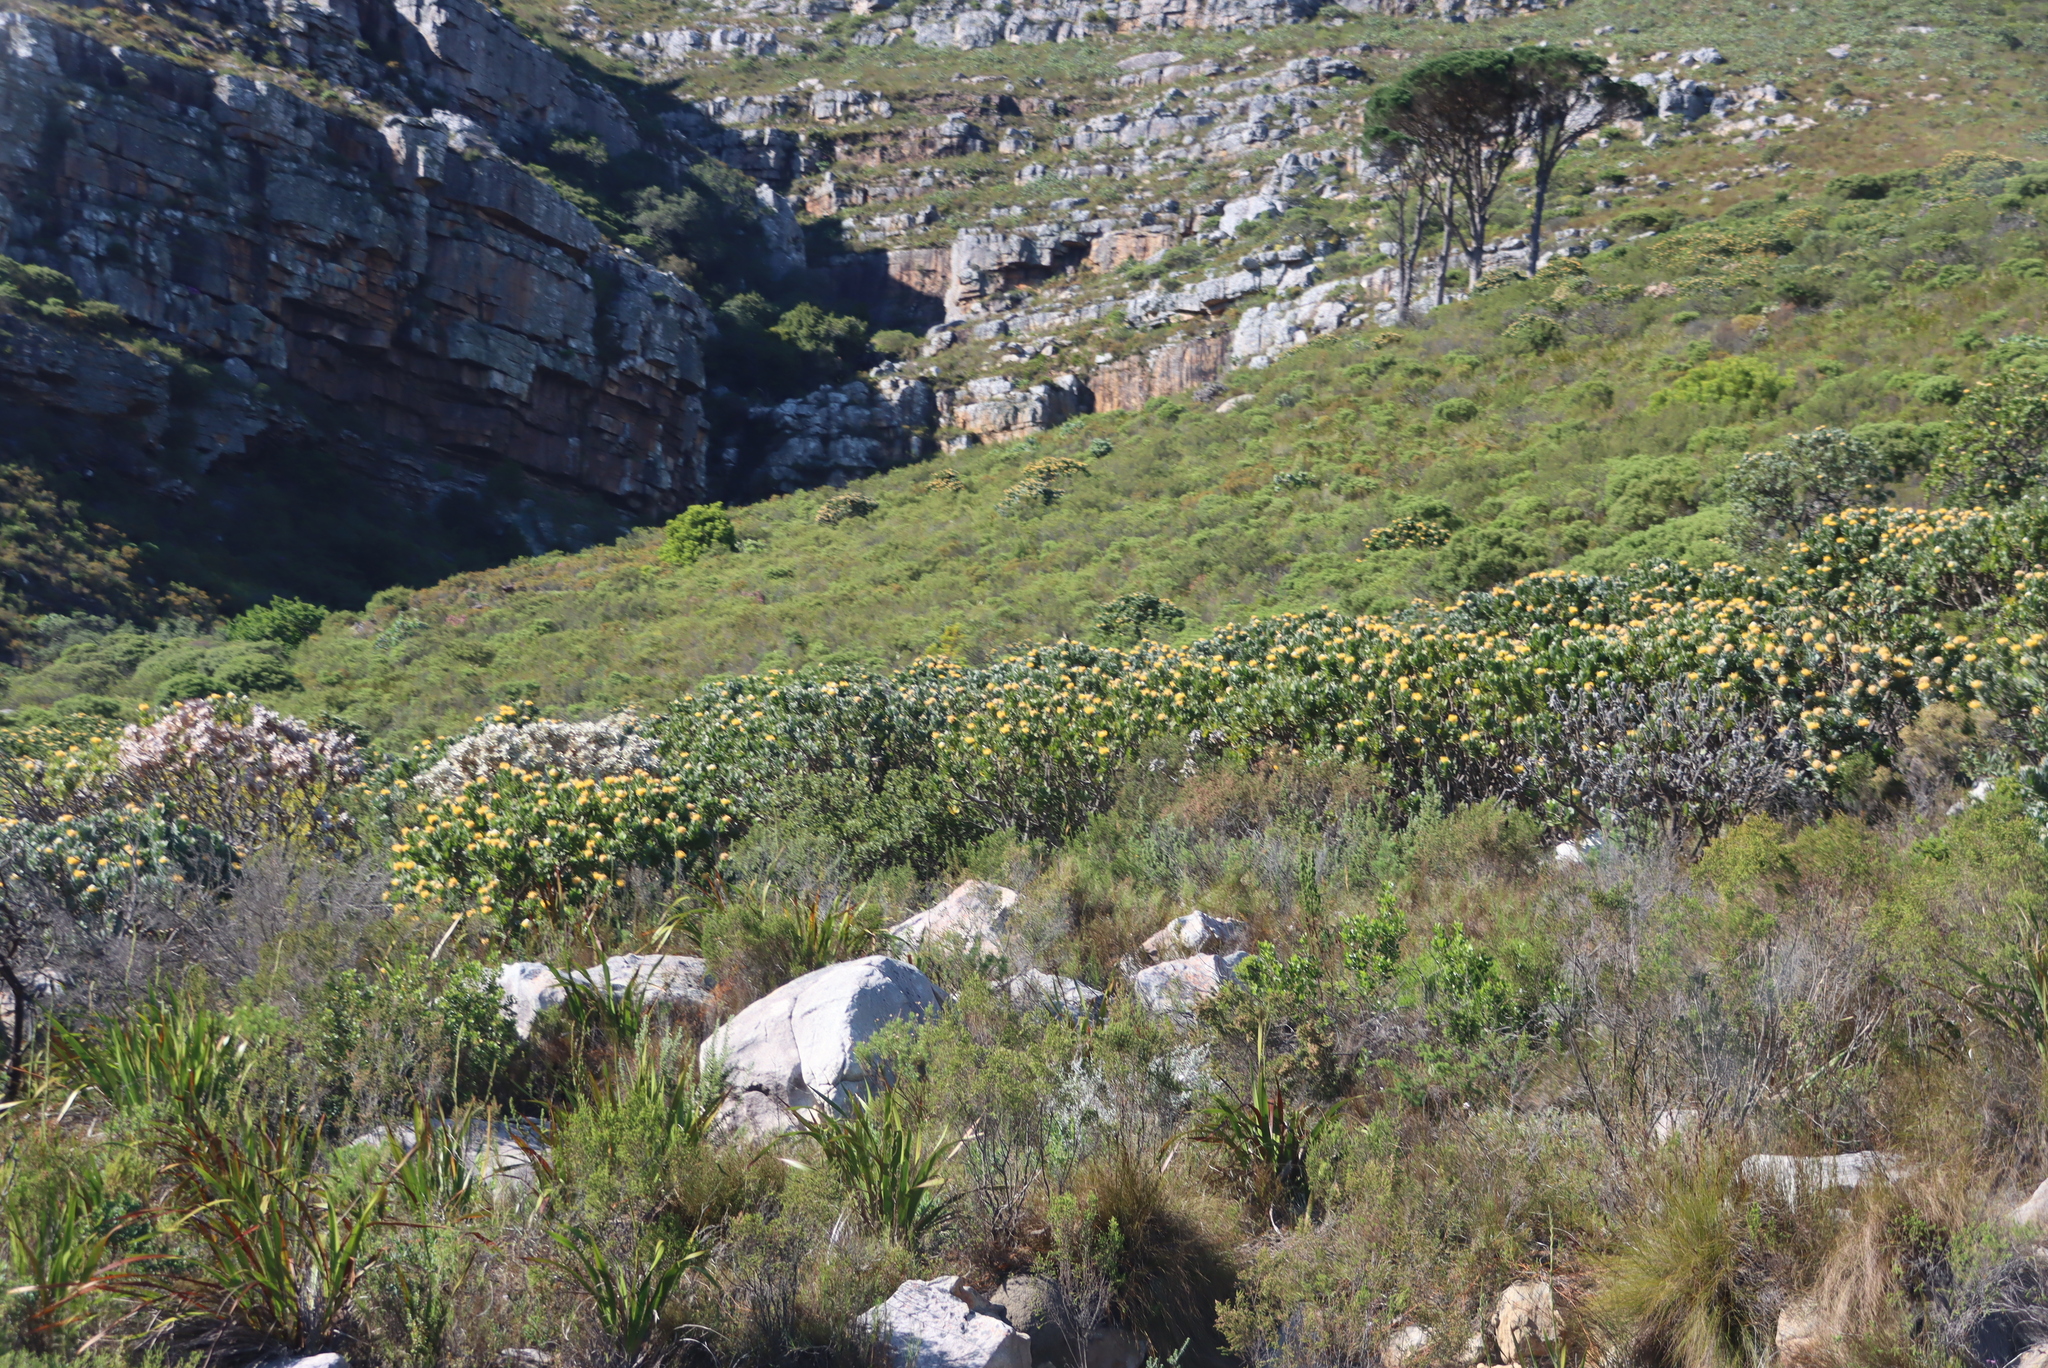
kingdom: Plantae
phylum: Tracheophyta
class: Magnoliopsida
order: Proteales
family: Proteaceae
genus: Leucospermum
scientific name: Leucospermum conocarpodendron
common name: Tree pincushion
